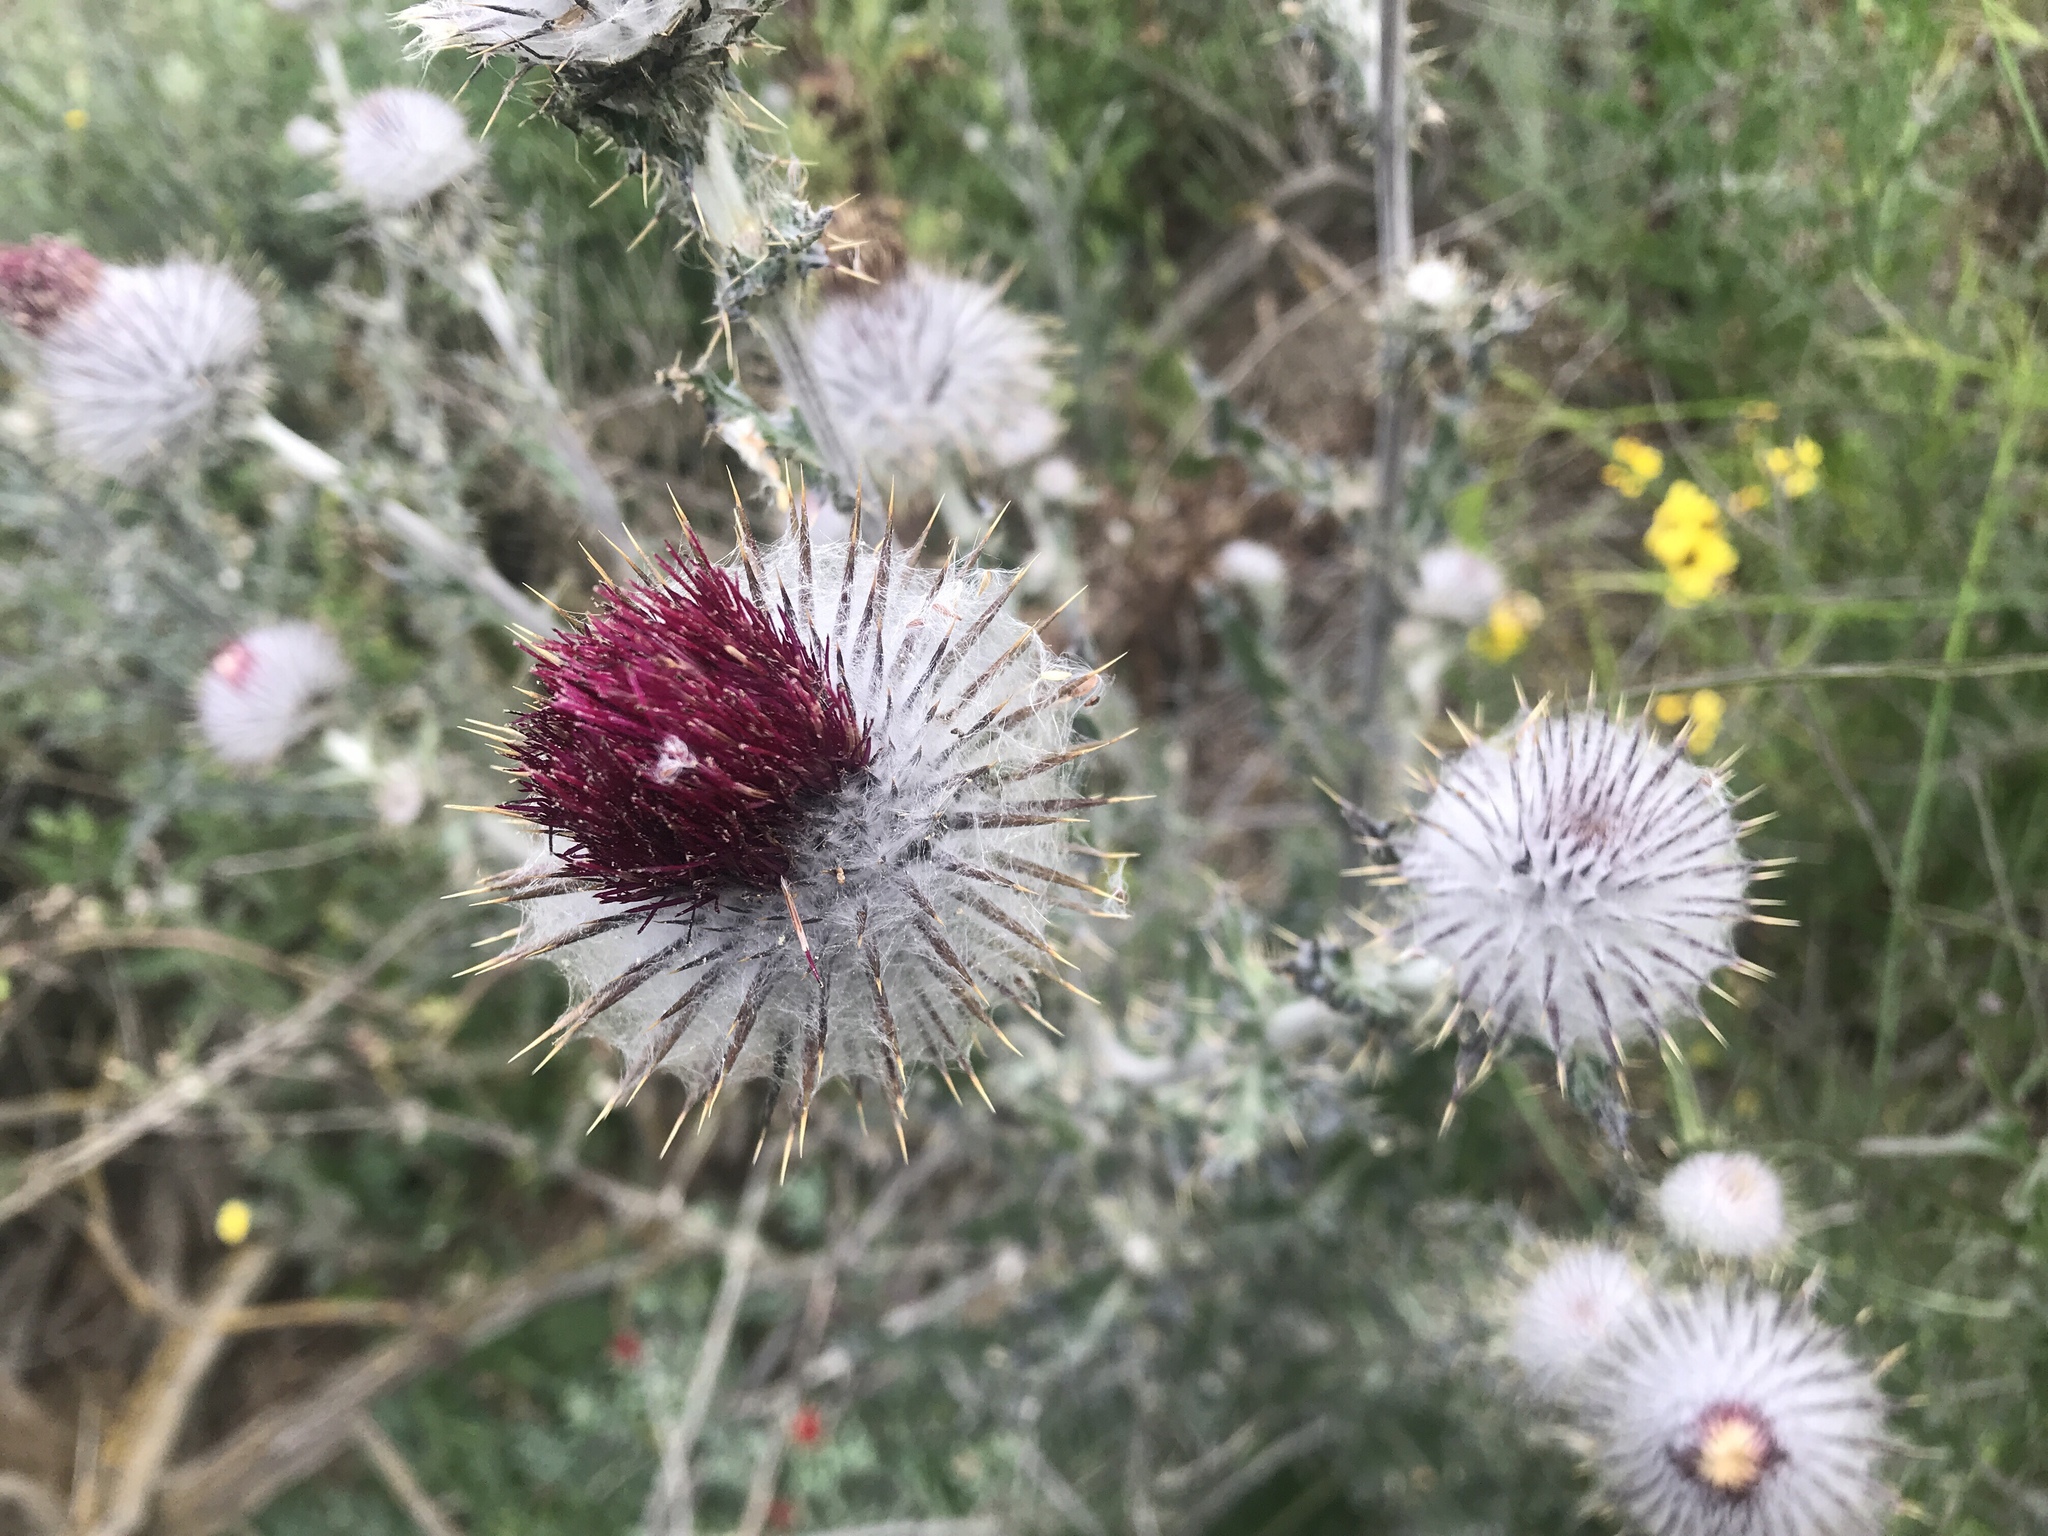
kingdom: Plantae
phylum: Tracheophyta
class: Magnoliopsida
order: Asterales
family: Asteraceae
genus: Cirsium
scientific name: Cirsium occidentale
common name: Western thistle
